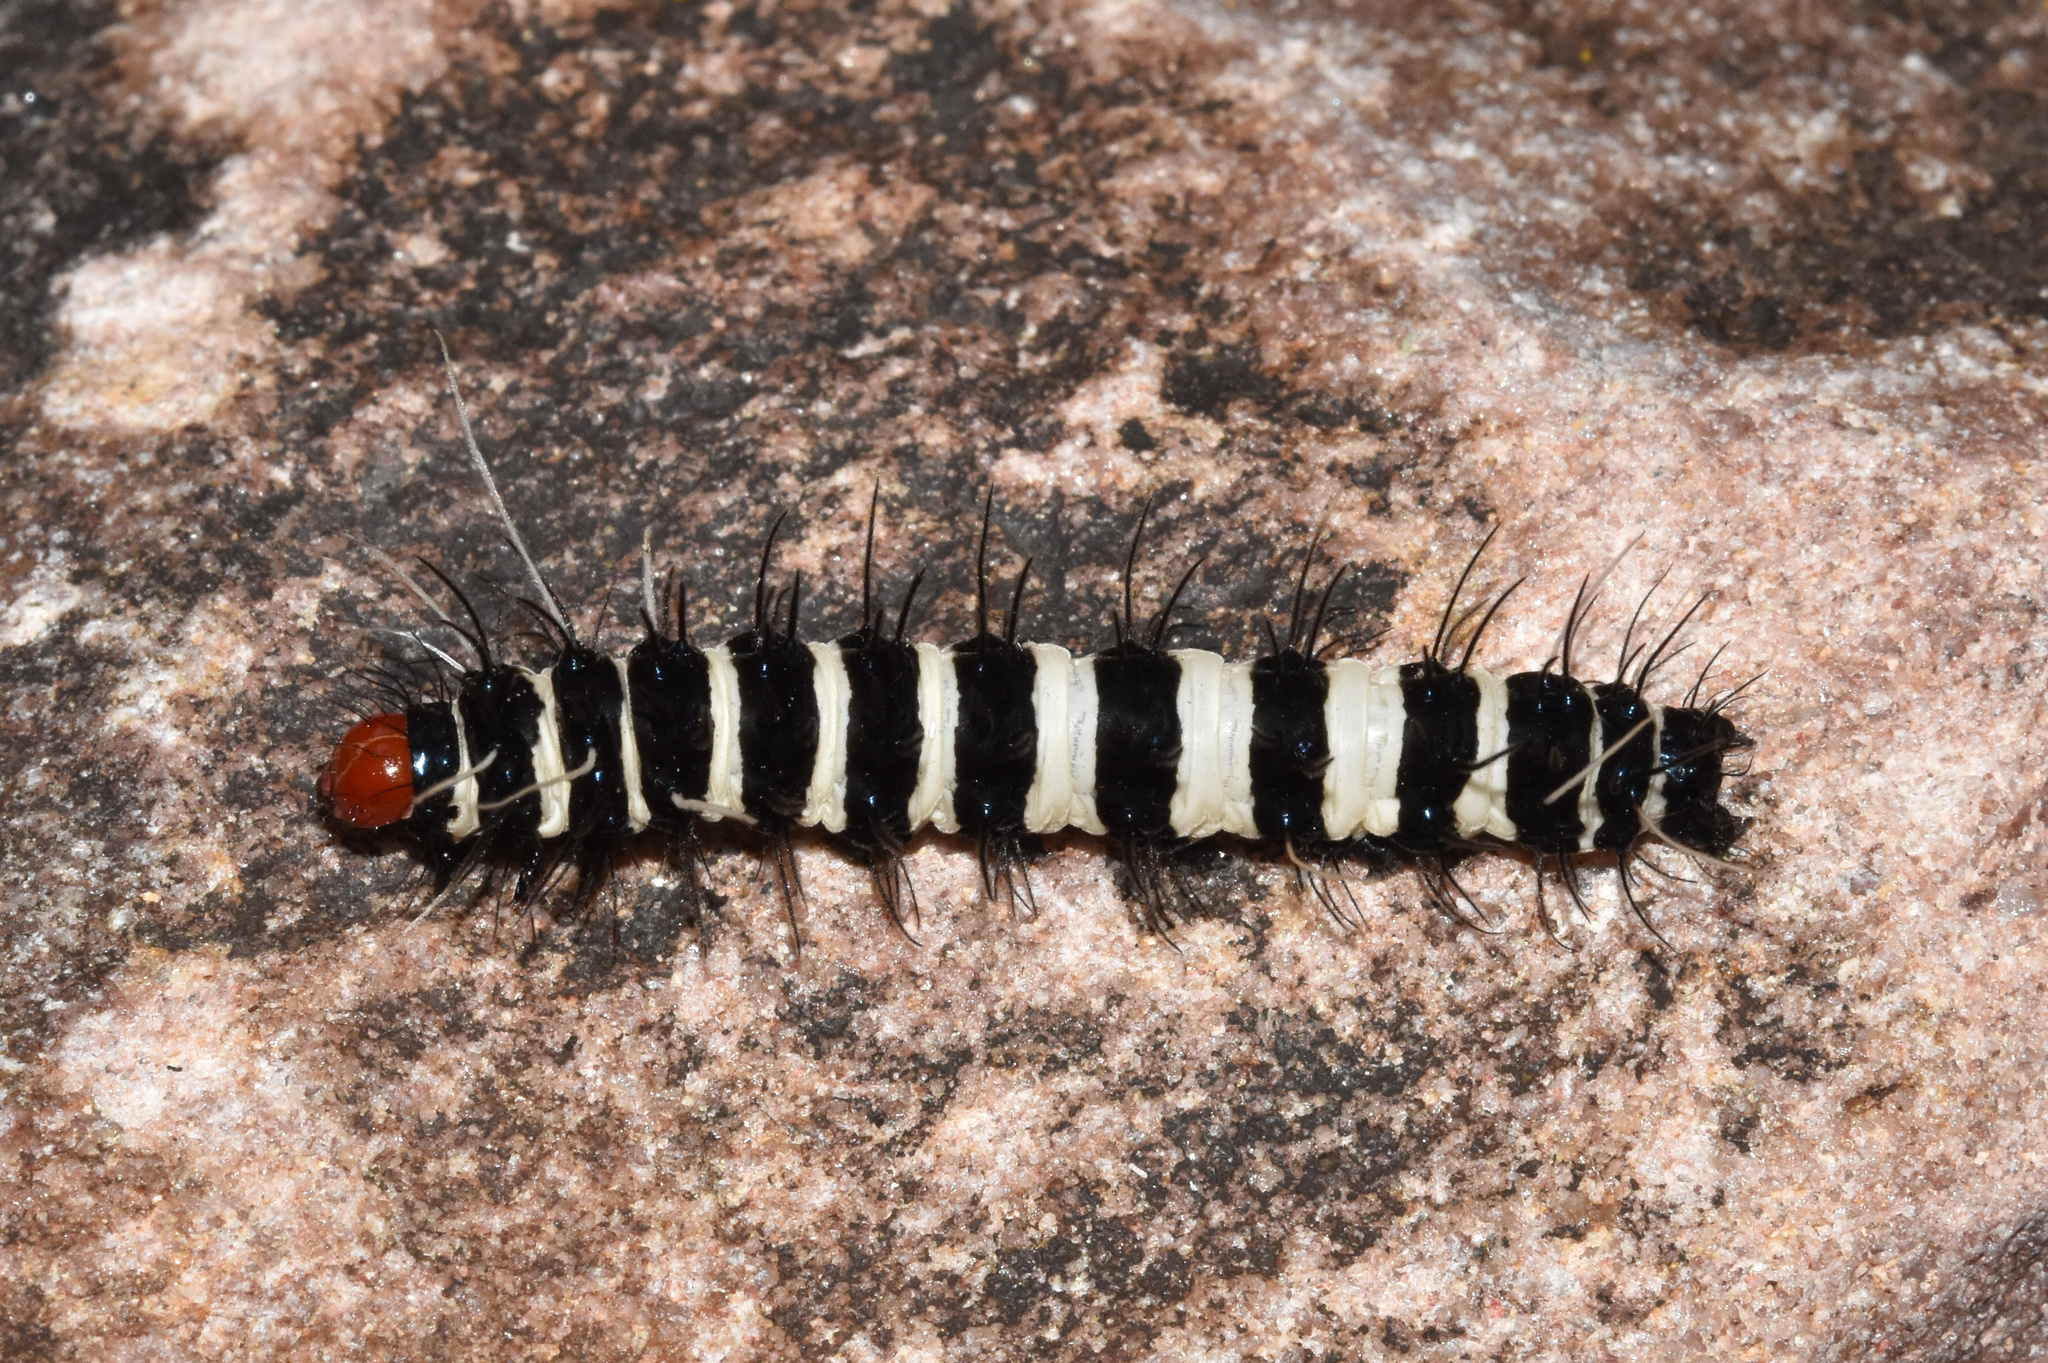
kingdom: Animalia
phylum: Arthropoda
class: Insecta
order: Lepidoptera
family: Erebidae
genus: Amphicallia
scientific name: Amphicallia bellatrix
